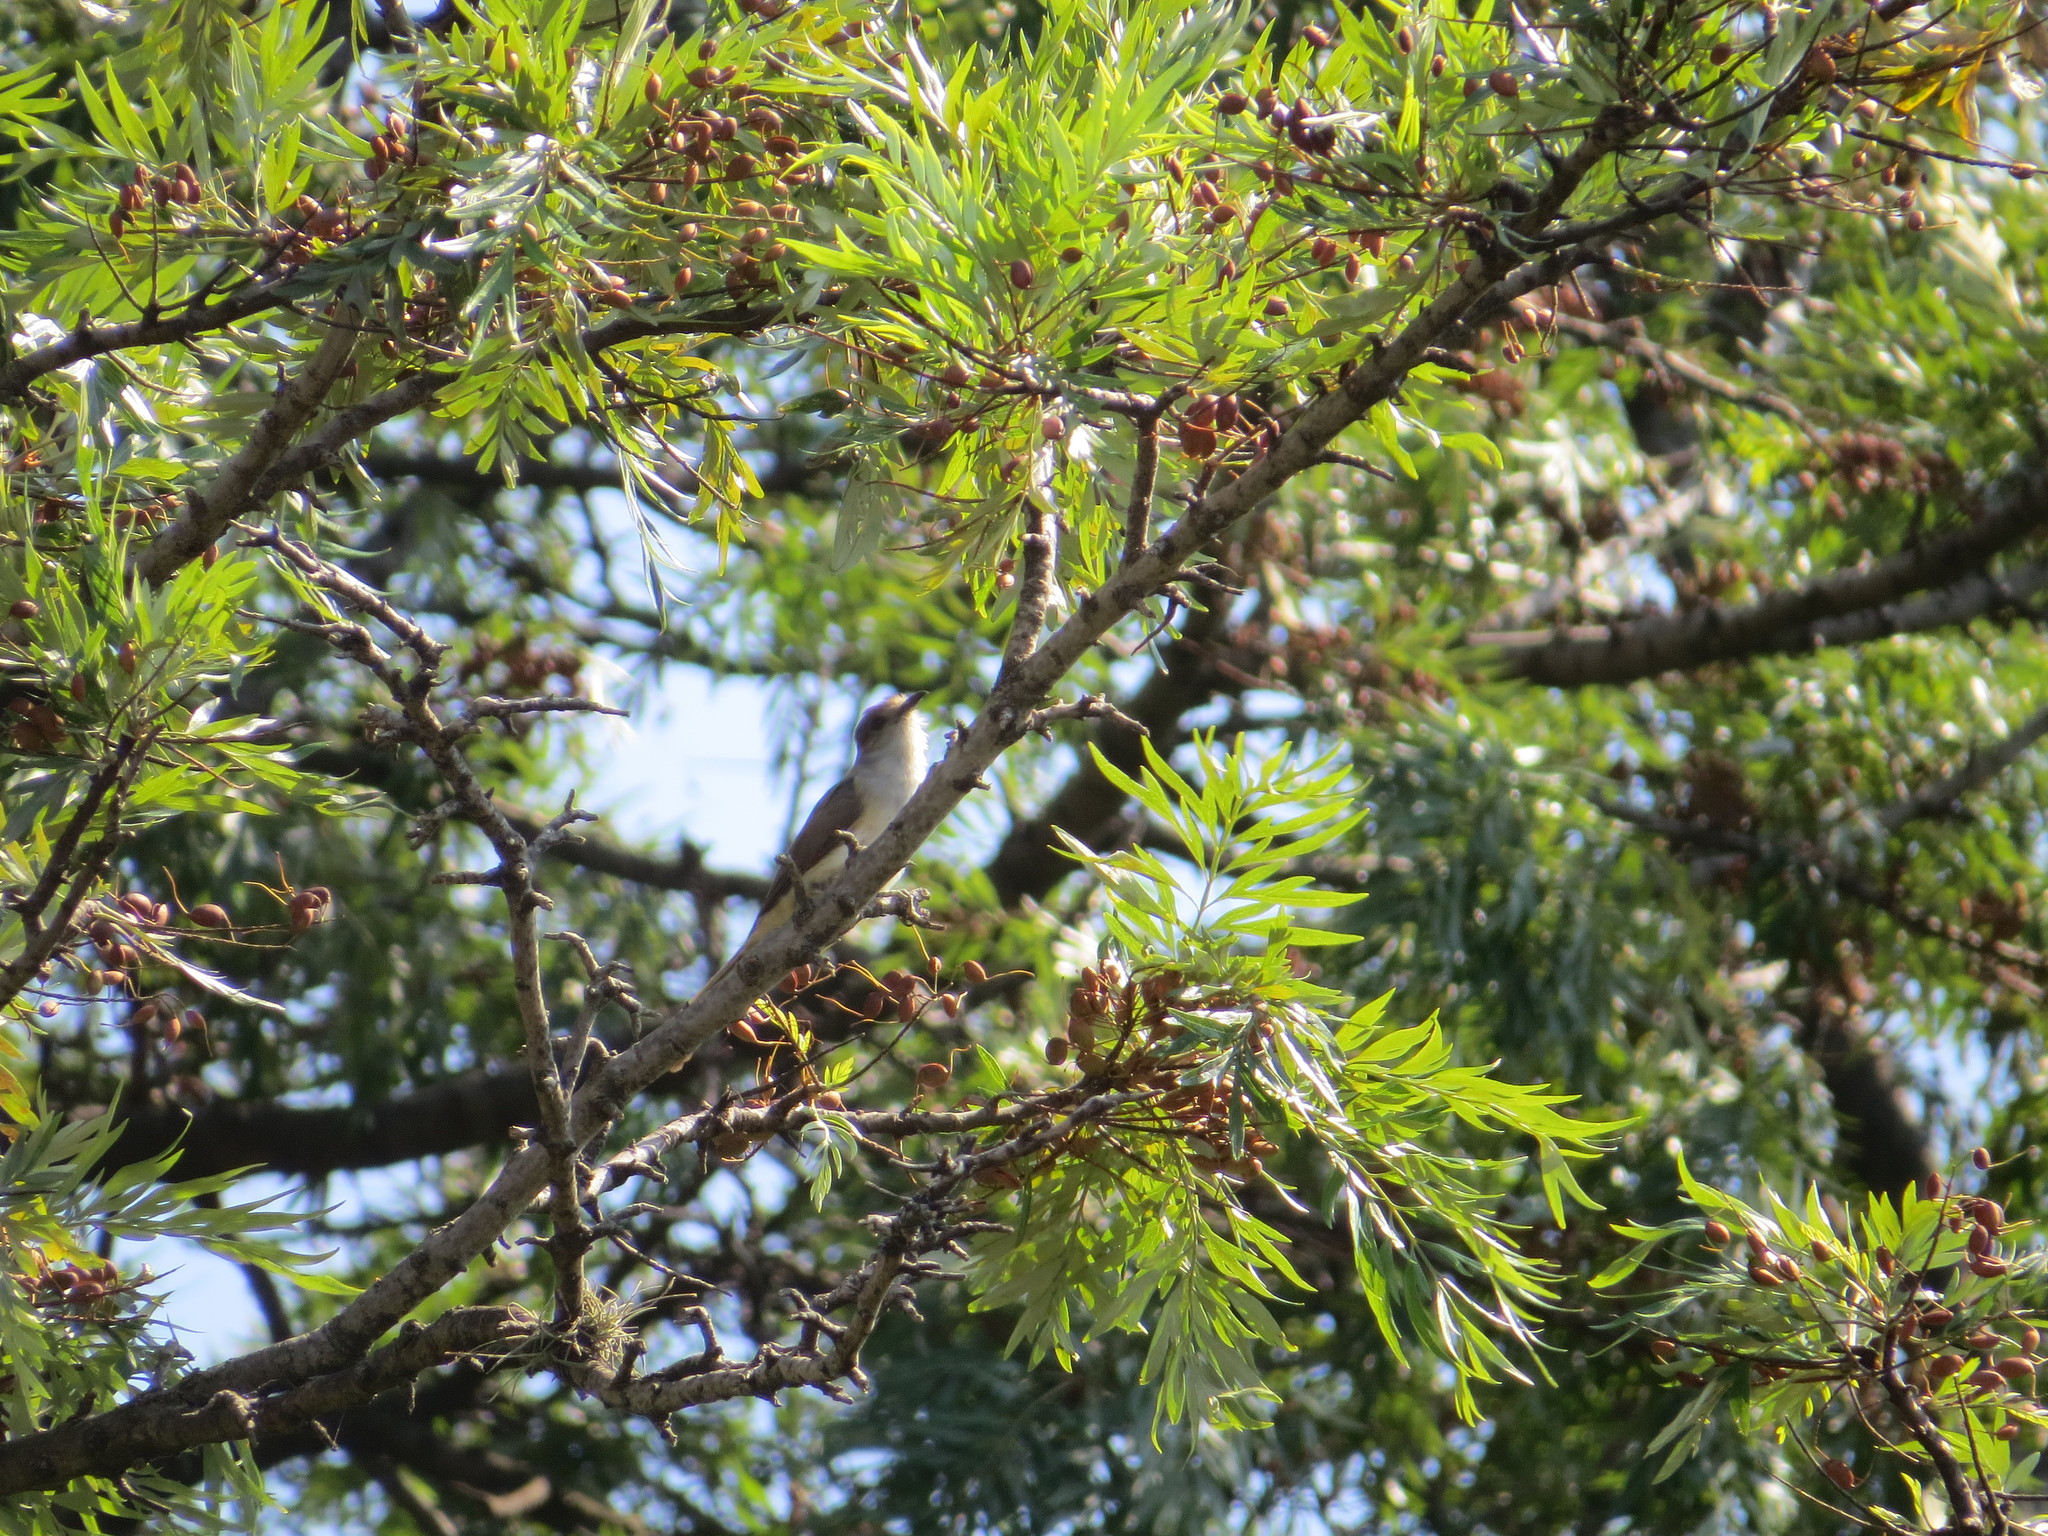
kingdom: Animalia
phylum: Chordata
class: Aves
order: Cuculiformes
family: Cuculidae
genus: Coccyzus
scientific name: Coccyzus cinereus
